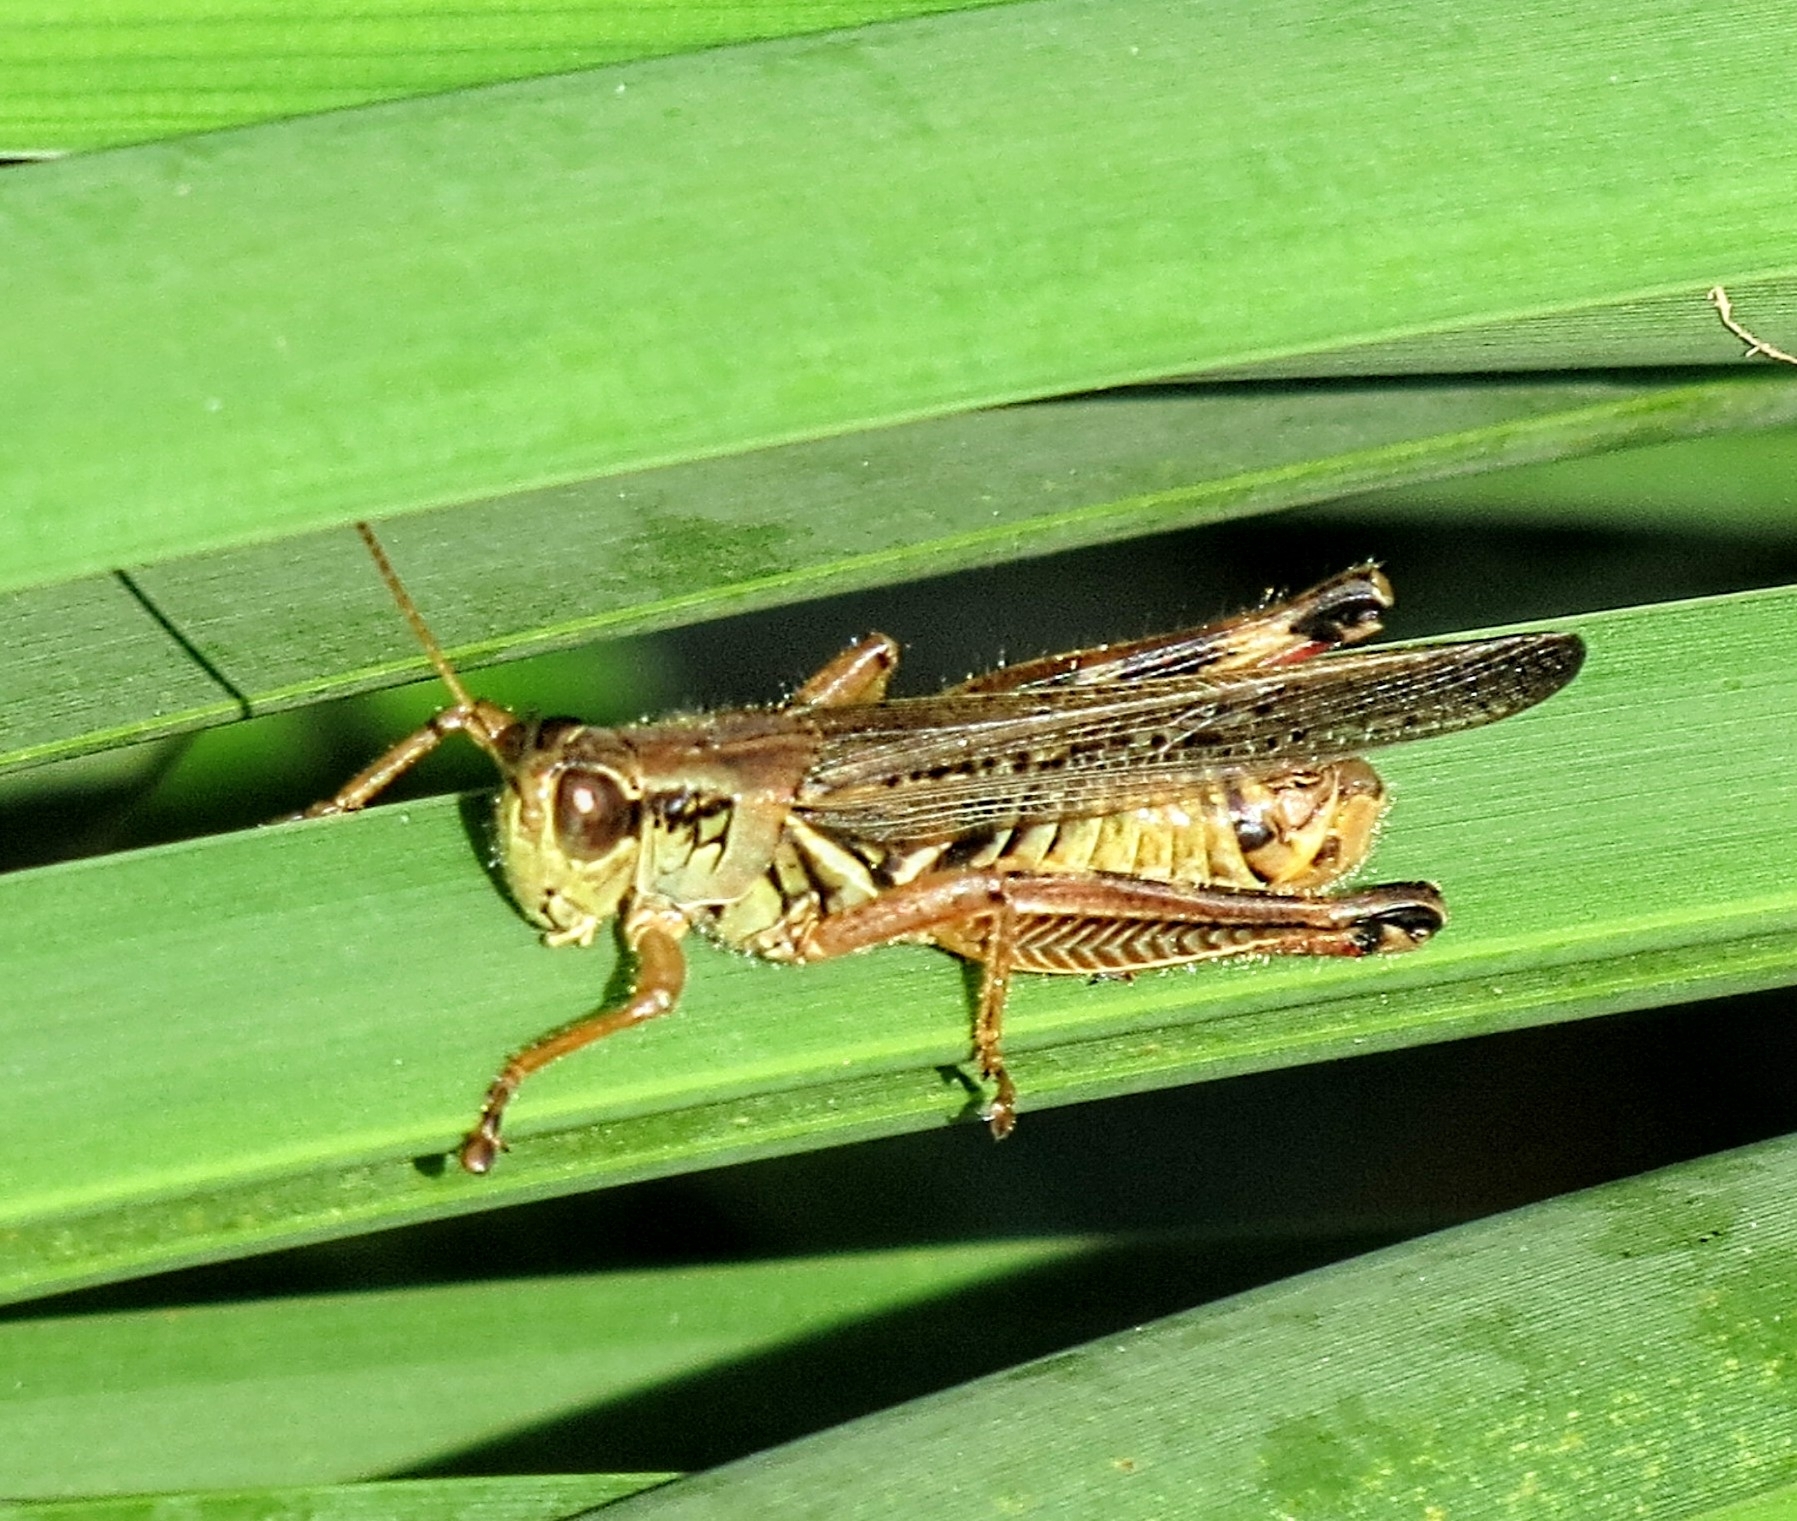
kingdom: Animalia
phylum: Arthropoda
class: Insecta
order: Orthoptera
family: Acrididae
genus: Melanoplus
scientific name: Melanoplus femurrubrum
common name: Red-legged grasshopper
